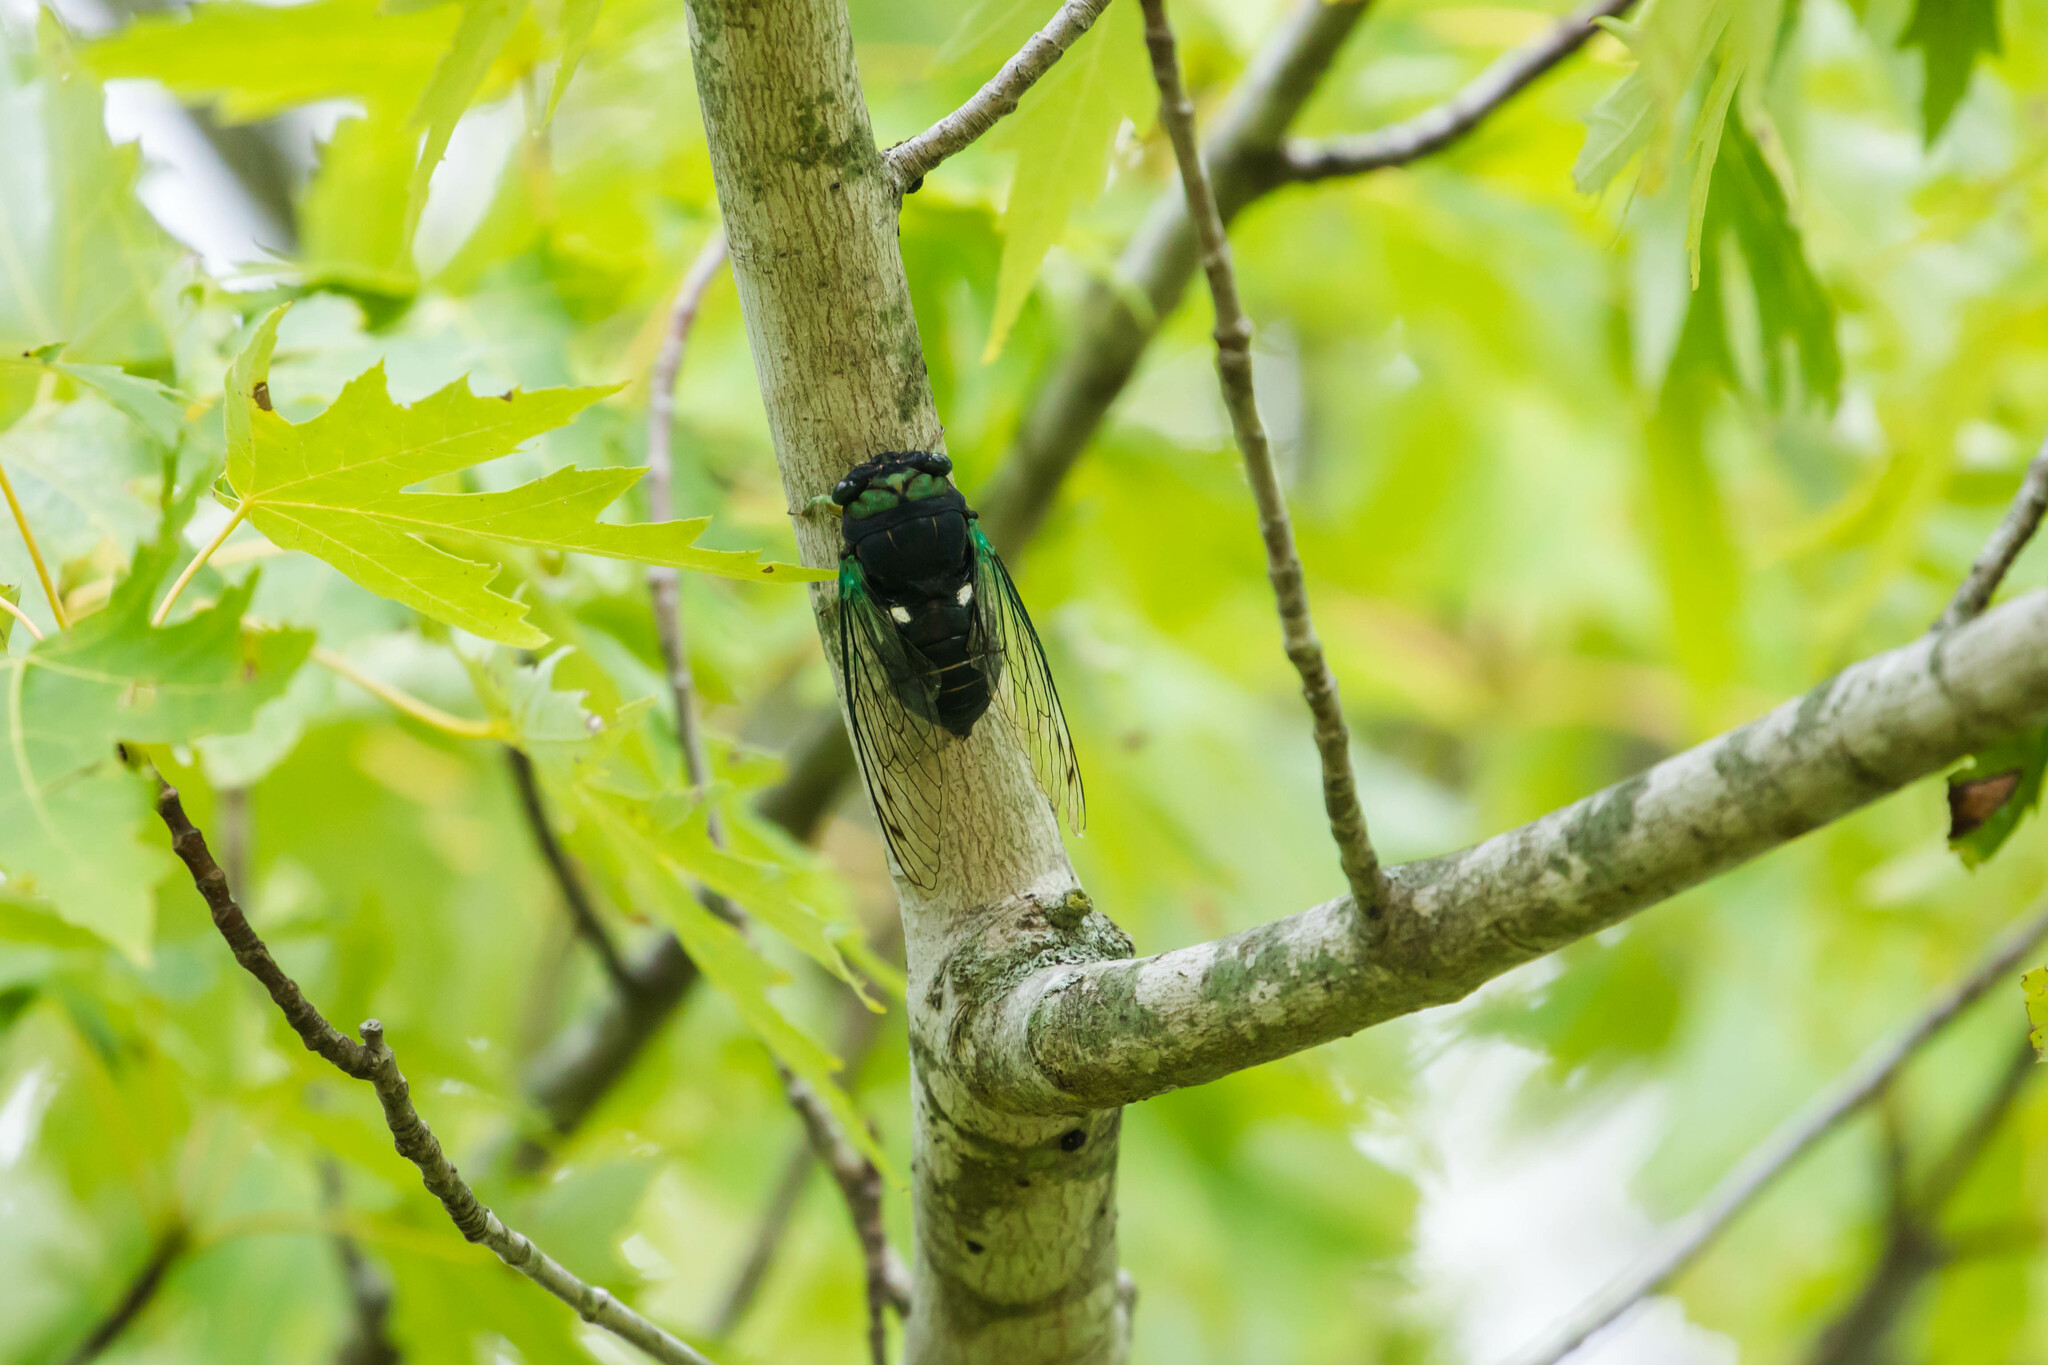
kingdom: Animalia
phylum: Arthropoda
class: Insecta
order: Hemiptera
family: Cicadidae
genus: Neotibicen
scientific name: Neotibicen tibicen
